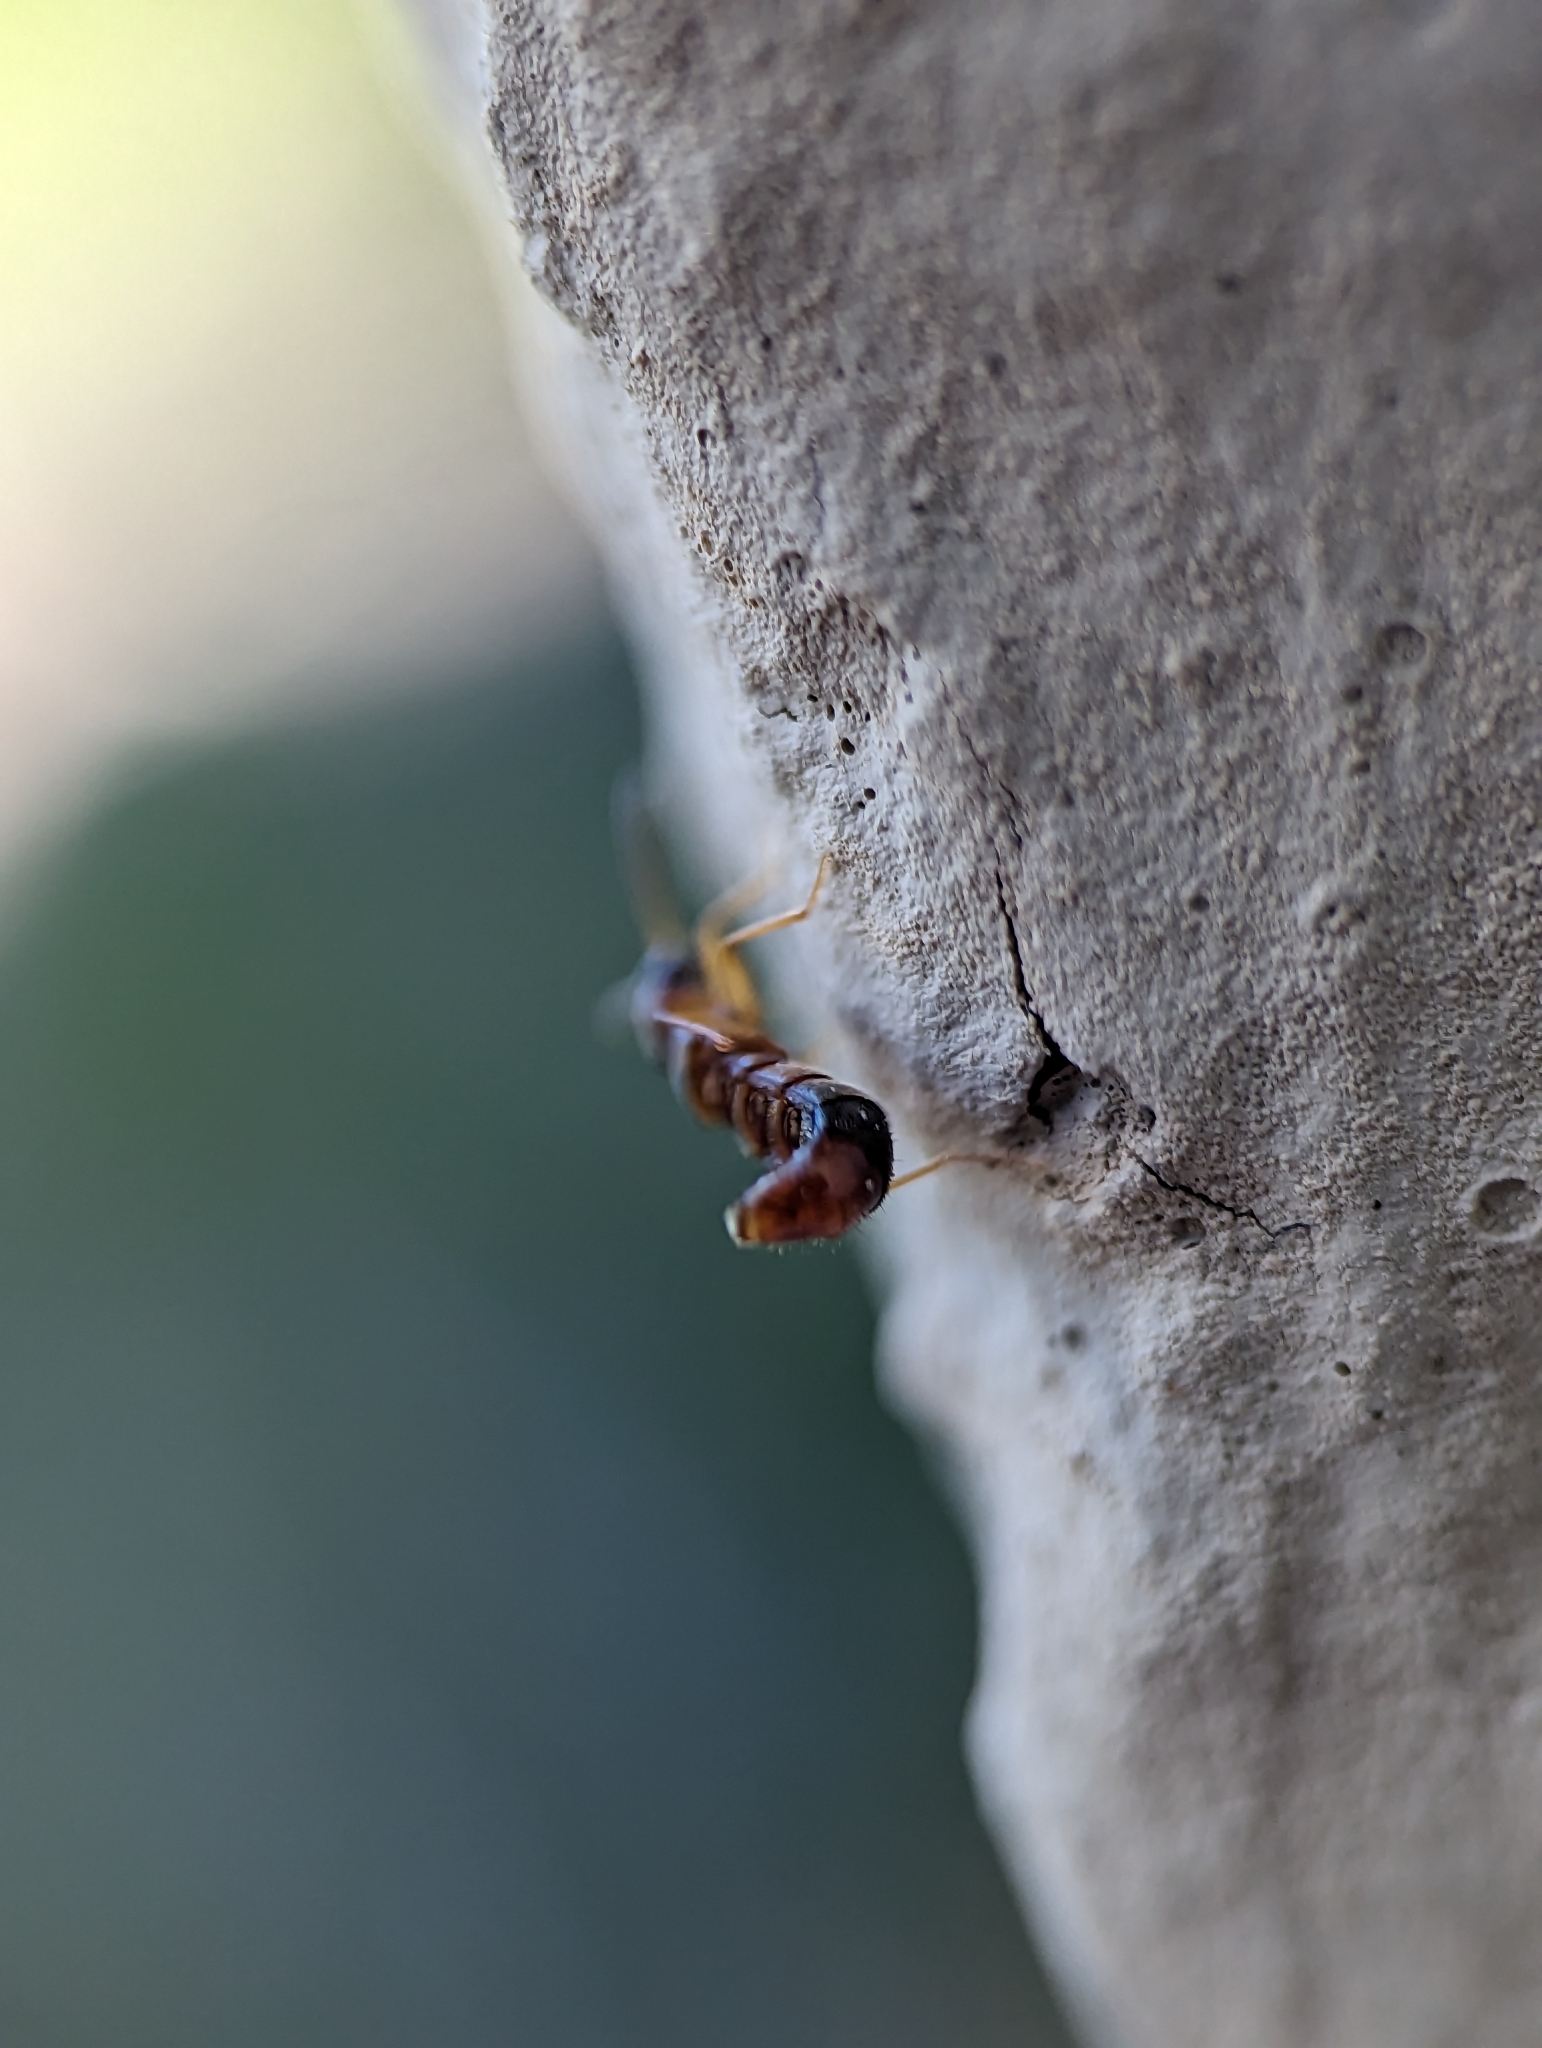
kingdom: Animalia
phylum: Arthropoda
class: Insecta
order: Coleoptera
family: Staphylinidae
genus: Drusilla
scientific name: Drusilla canaliculata
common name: Rove beetle
